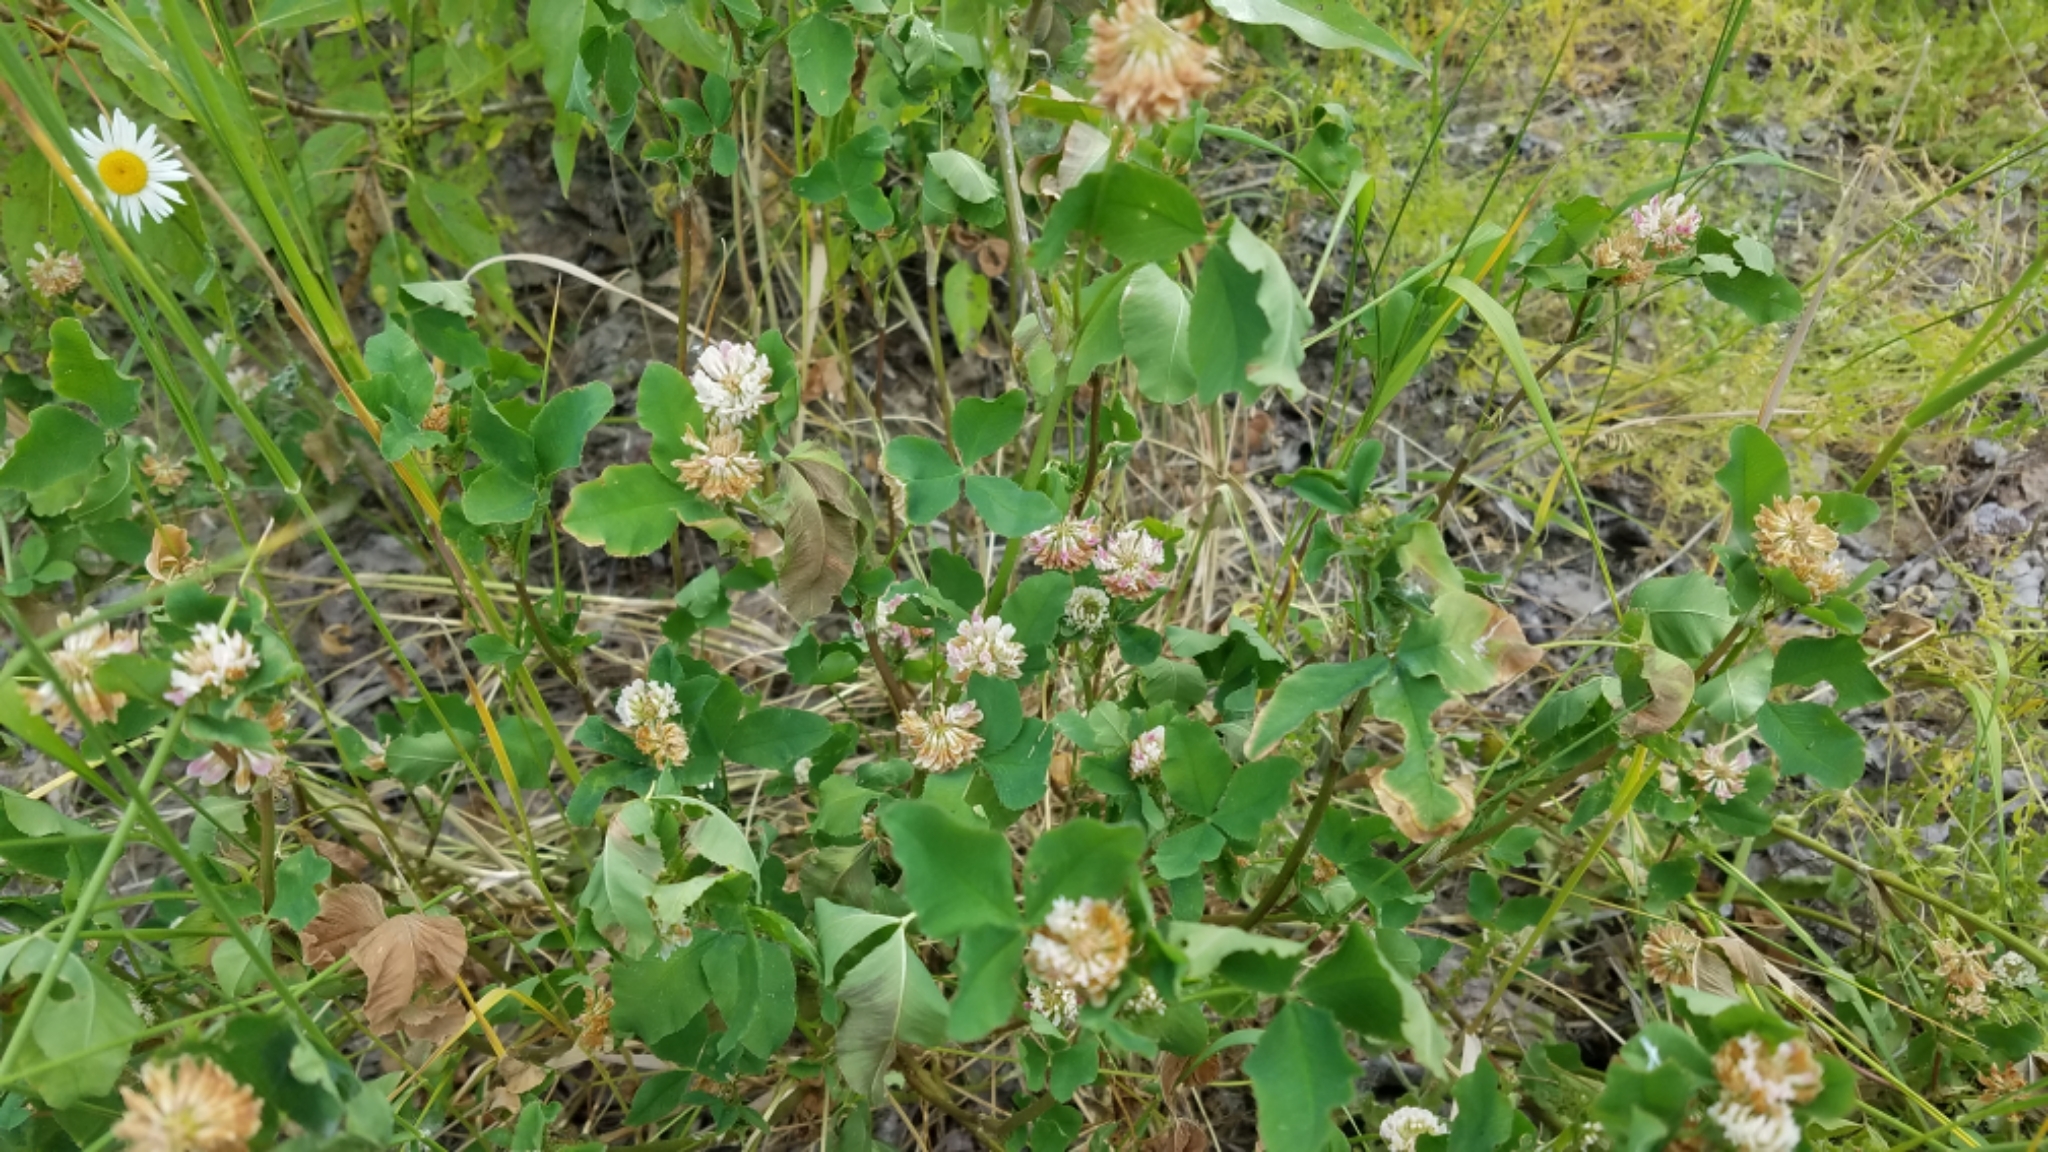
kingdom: Plantae
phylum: Tracheophyta
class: Magnoliopsida
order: Fabales
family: Fabaceae
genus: Trifolium
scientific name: Trifolium hybridum
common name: Alsike clover
